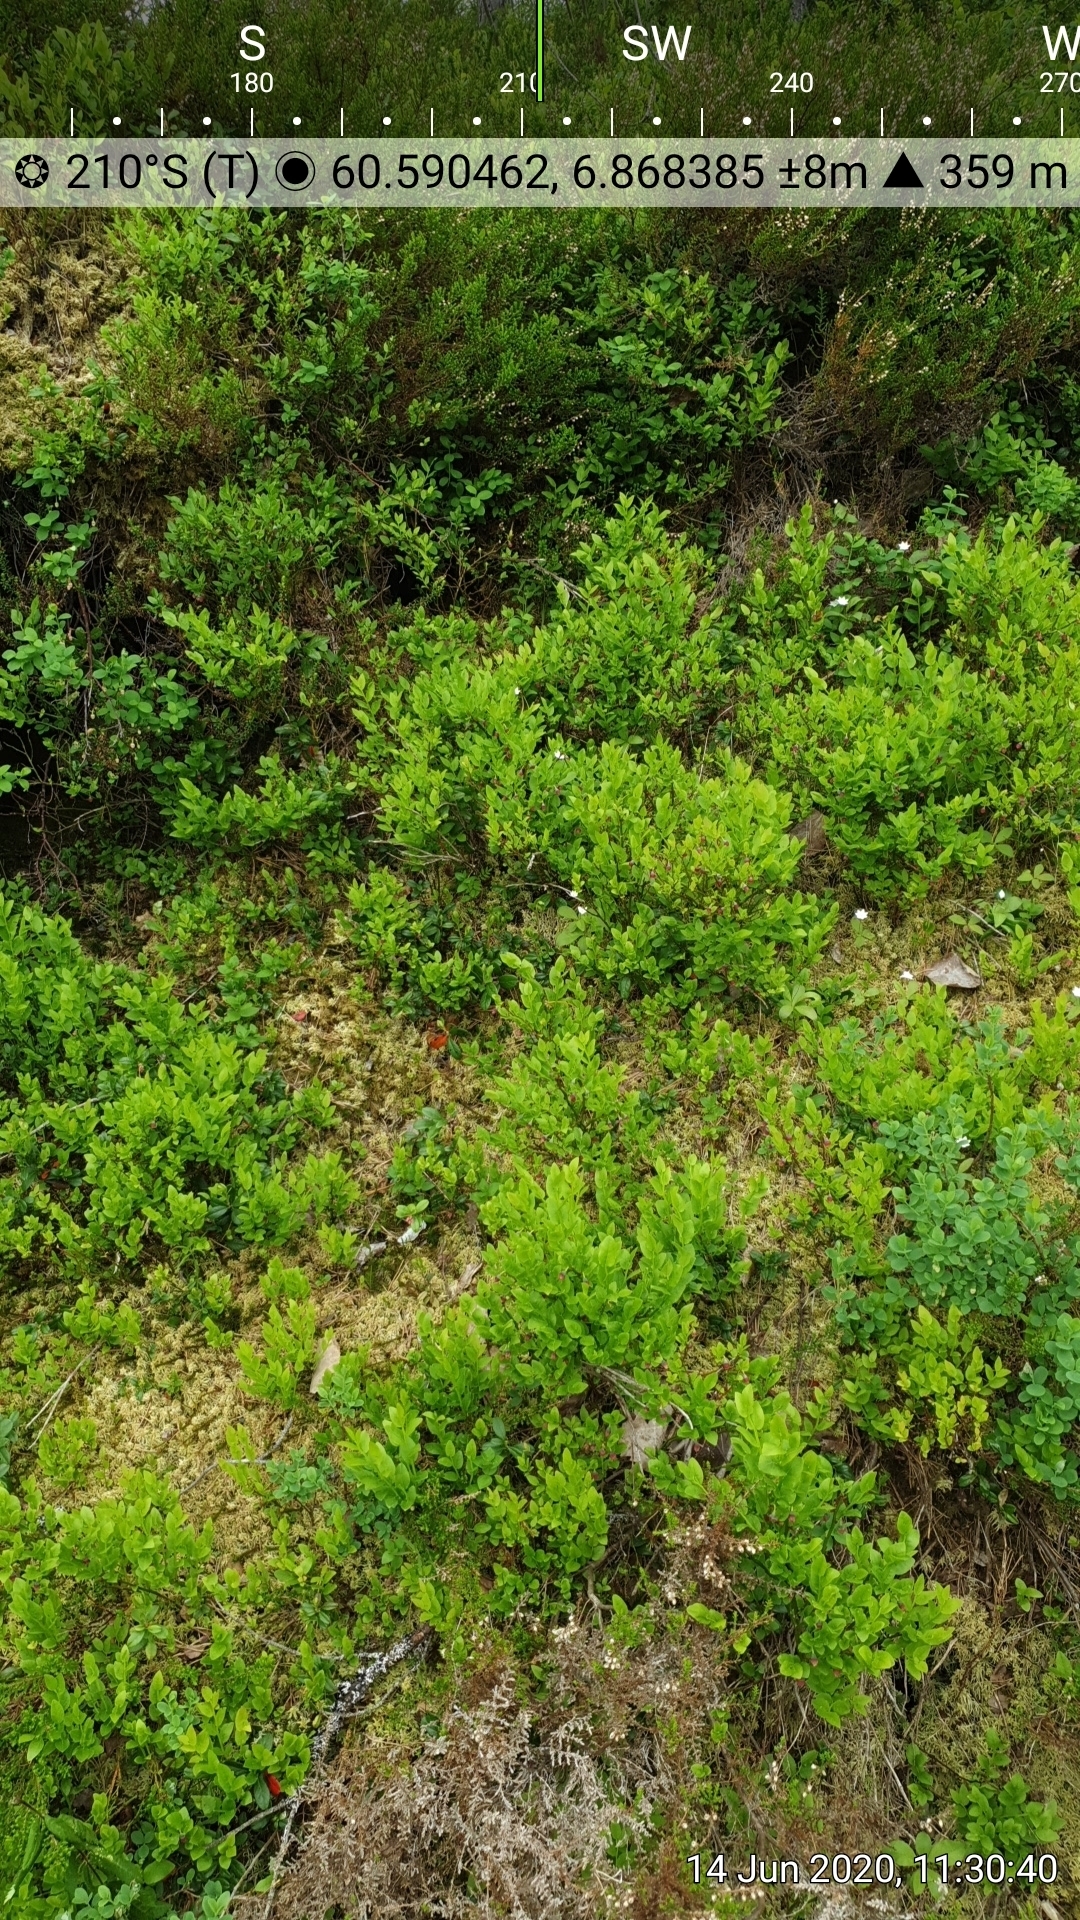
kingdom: Plantae
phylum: Tracheophyta
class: Magnoliopsida
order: Ericales
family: Ericaceae
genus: Empetrum
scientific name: Empetrum nigrum
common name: Black crowberry
